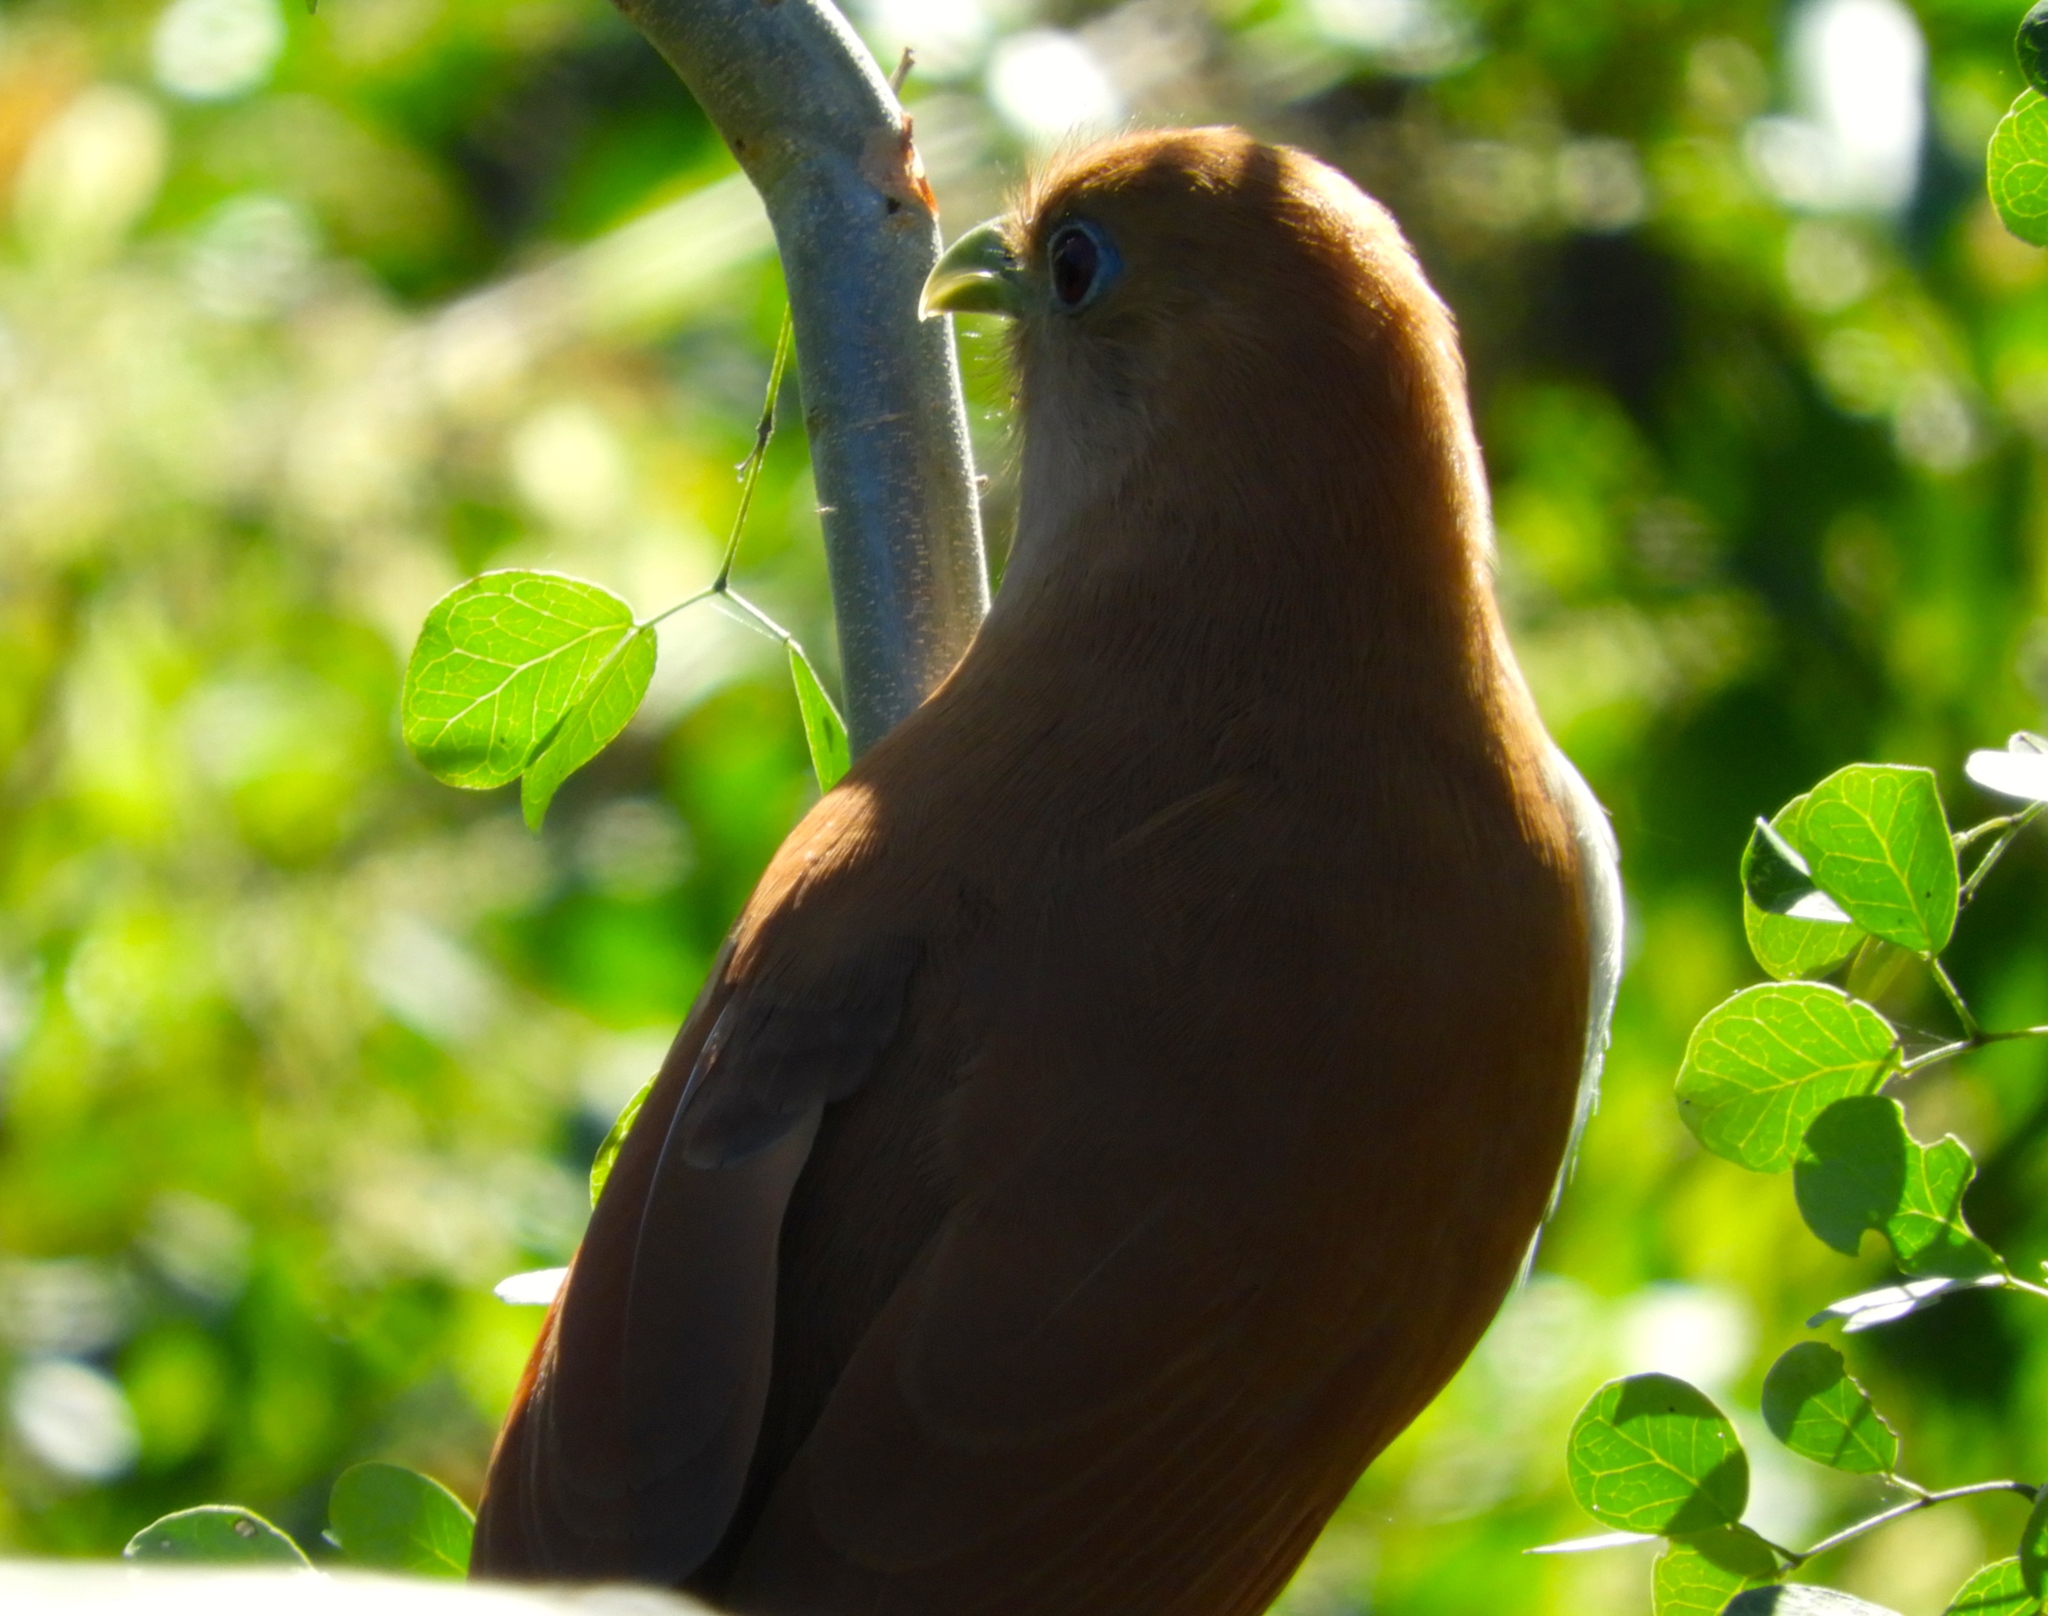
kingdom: Animalia
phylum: Chordata
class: Aves
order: Cuculiformes
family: Cuculidae
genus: Piaya
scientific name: Piaya cayana
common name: Squirrel cuckoo
